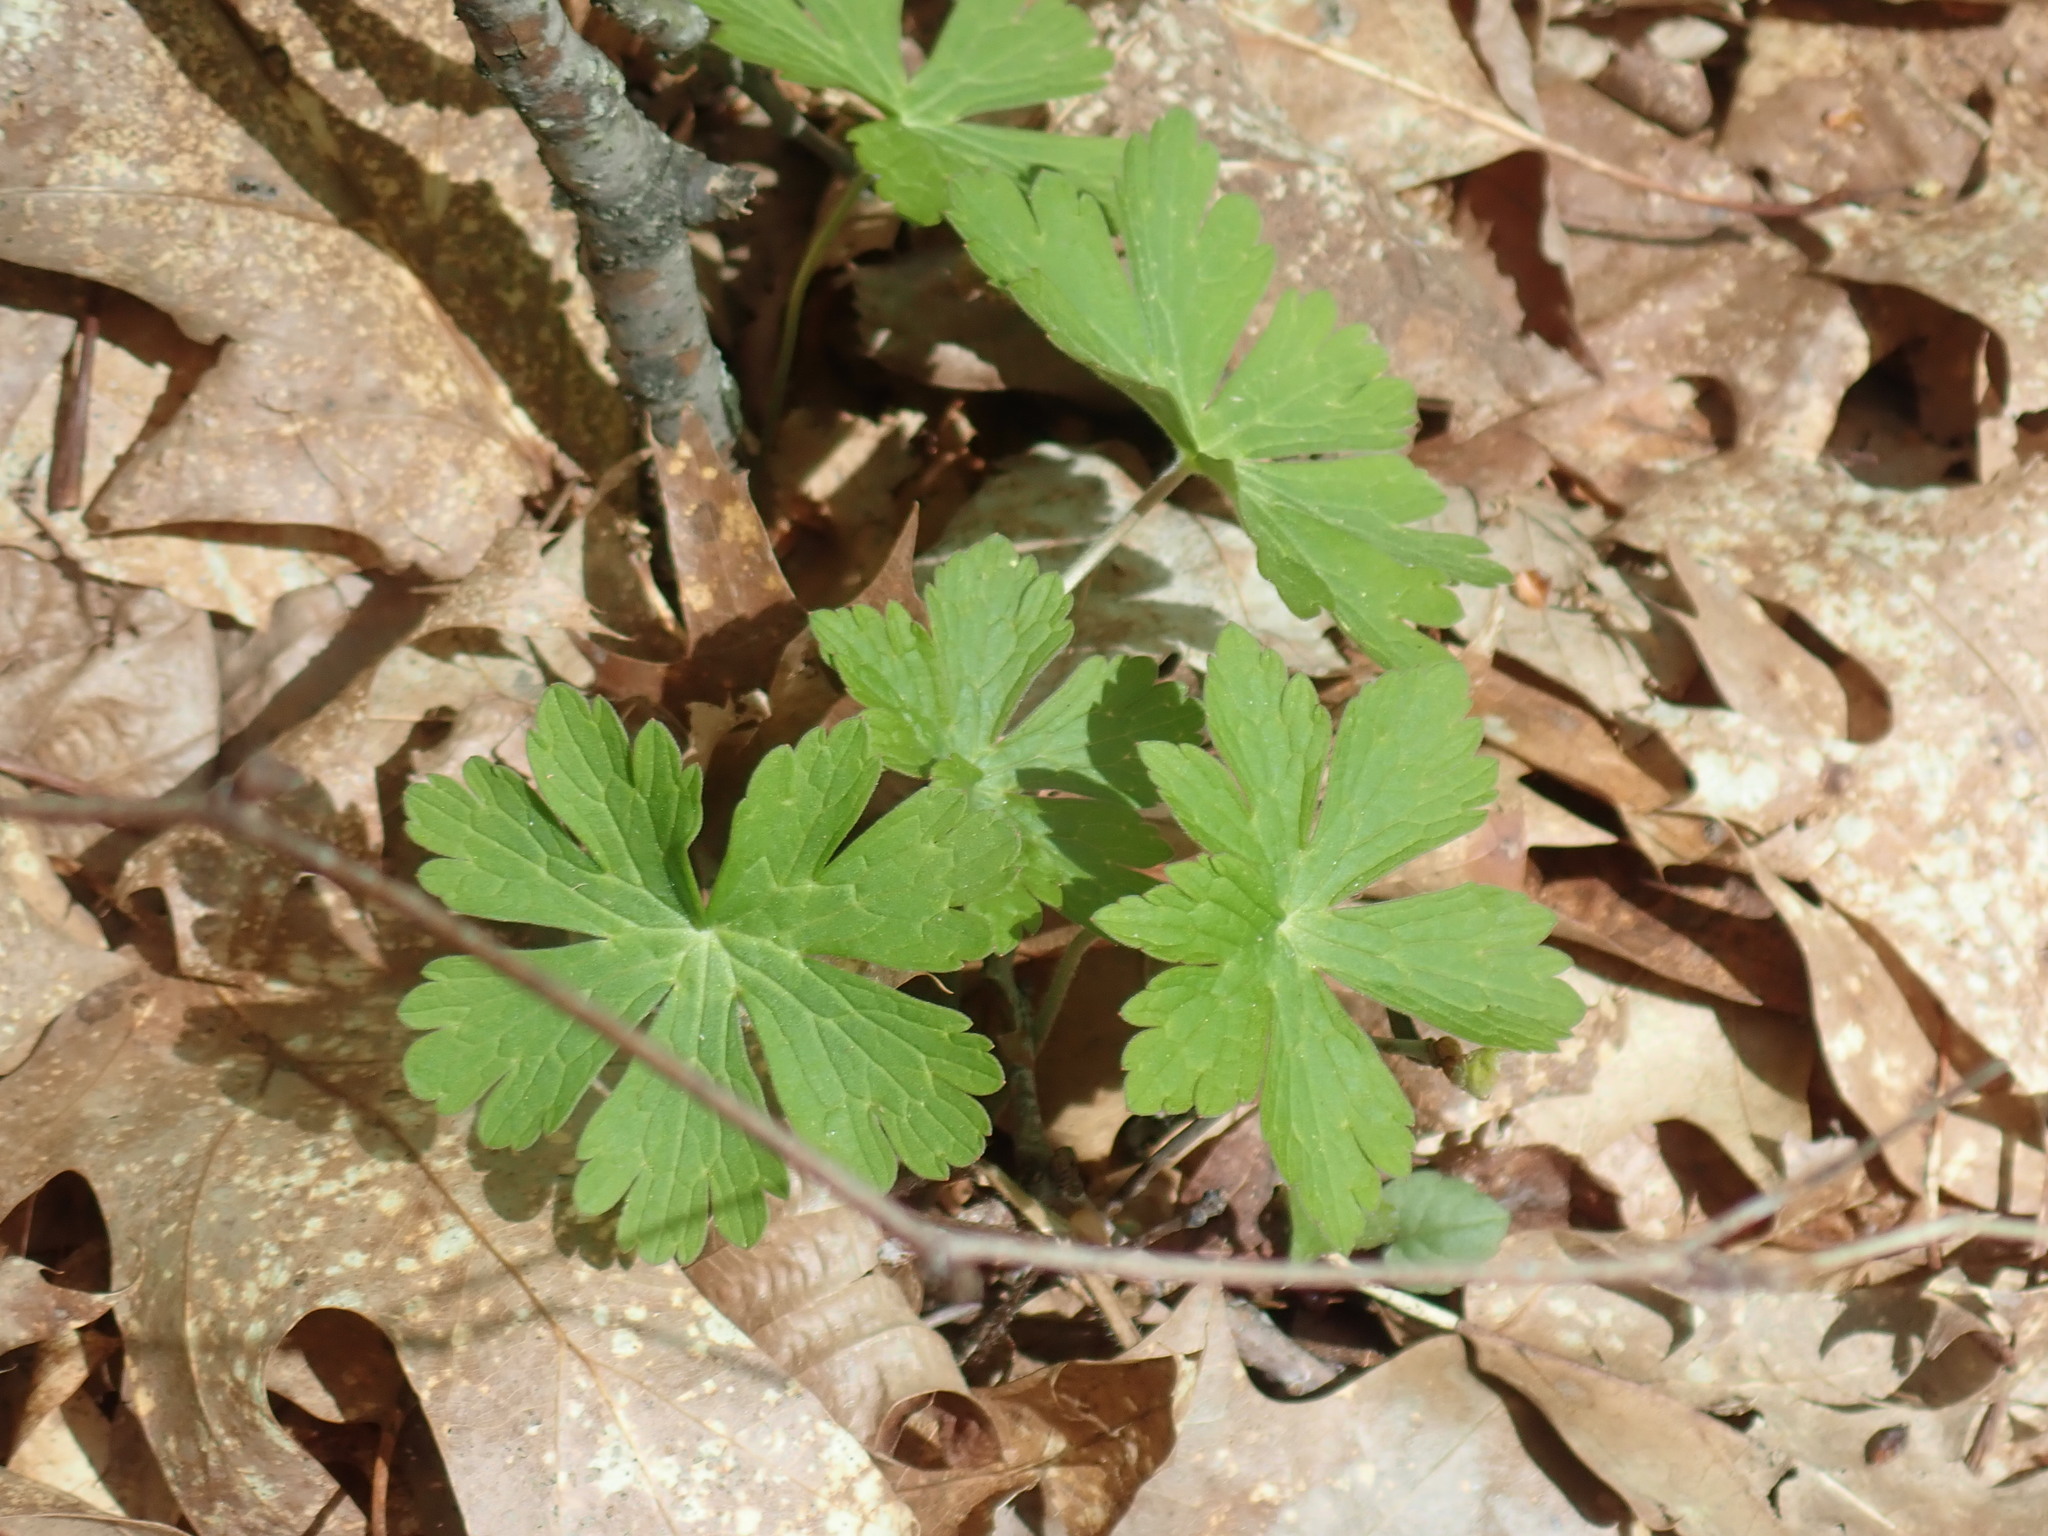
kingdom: Plantae
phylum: Tracheophyta
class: Magnoliopsida
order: Geraniales
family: Geraniaceae
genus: Geranium
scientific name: Geranium maculatum
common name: Spotted geranium
